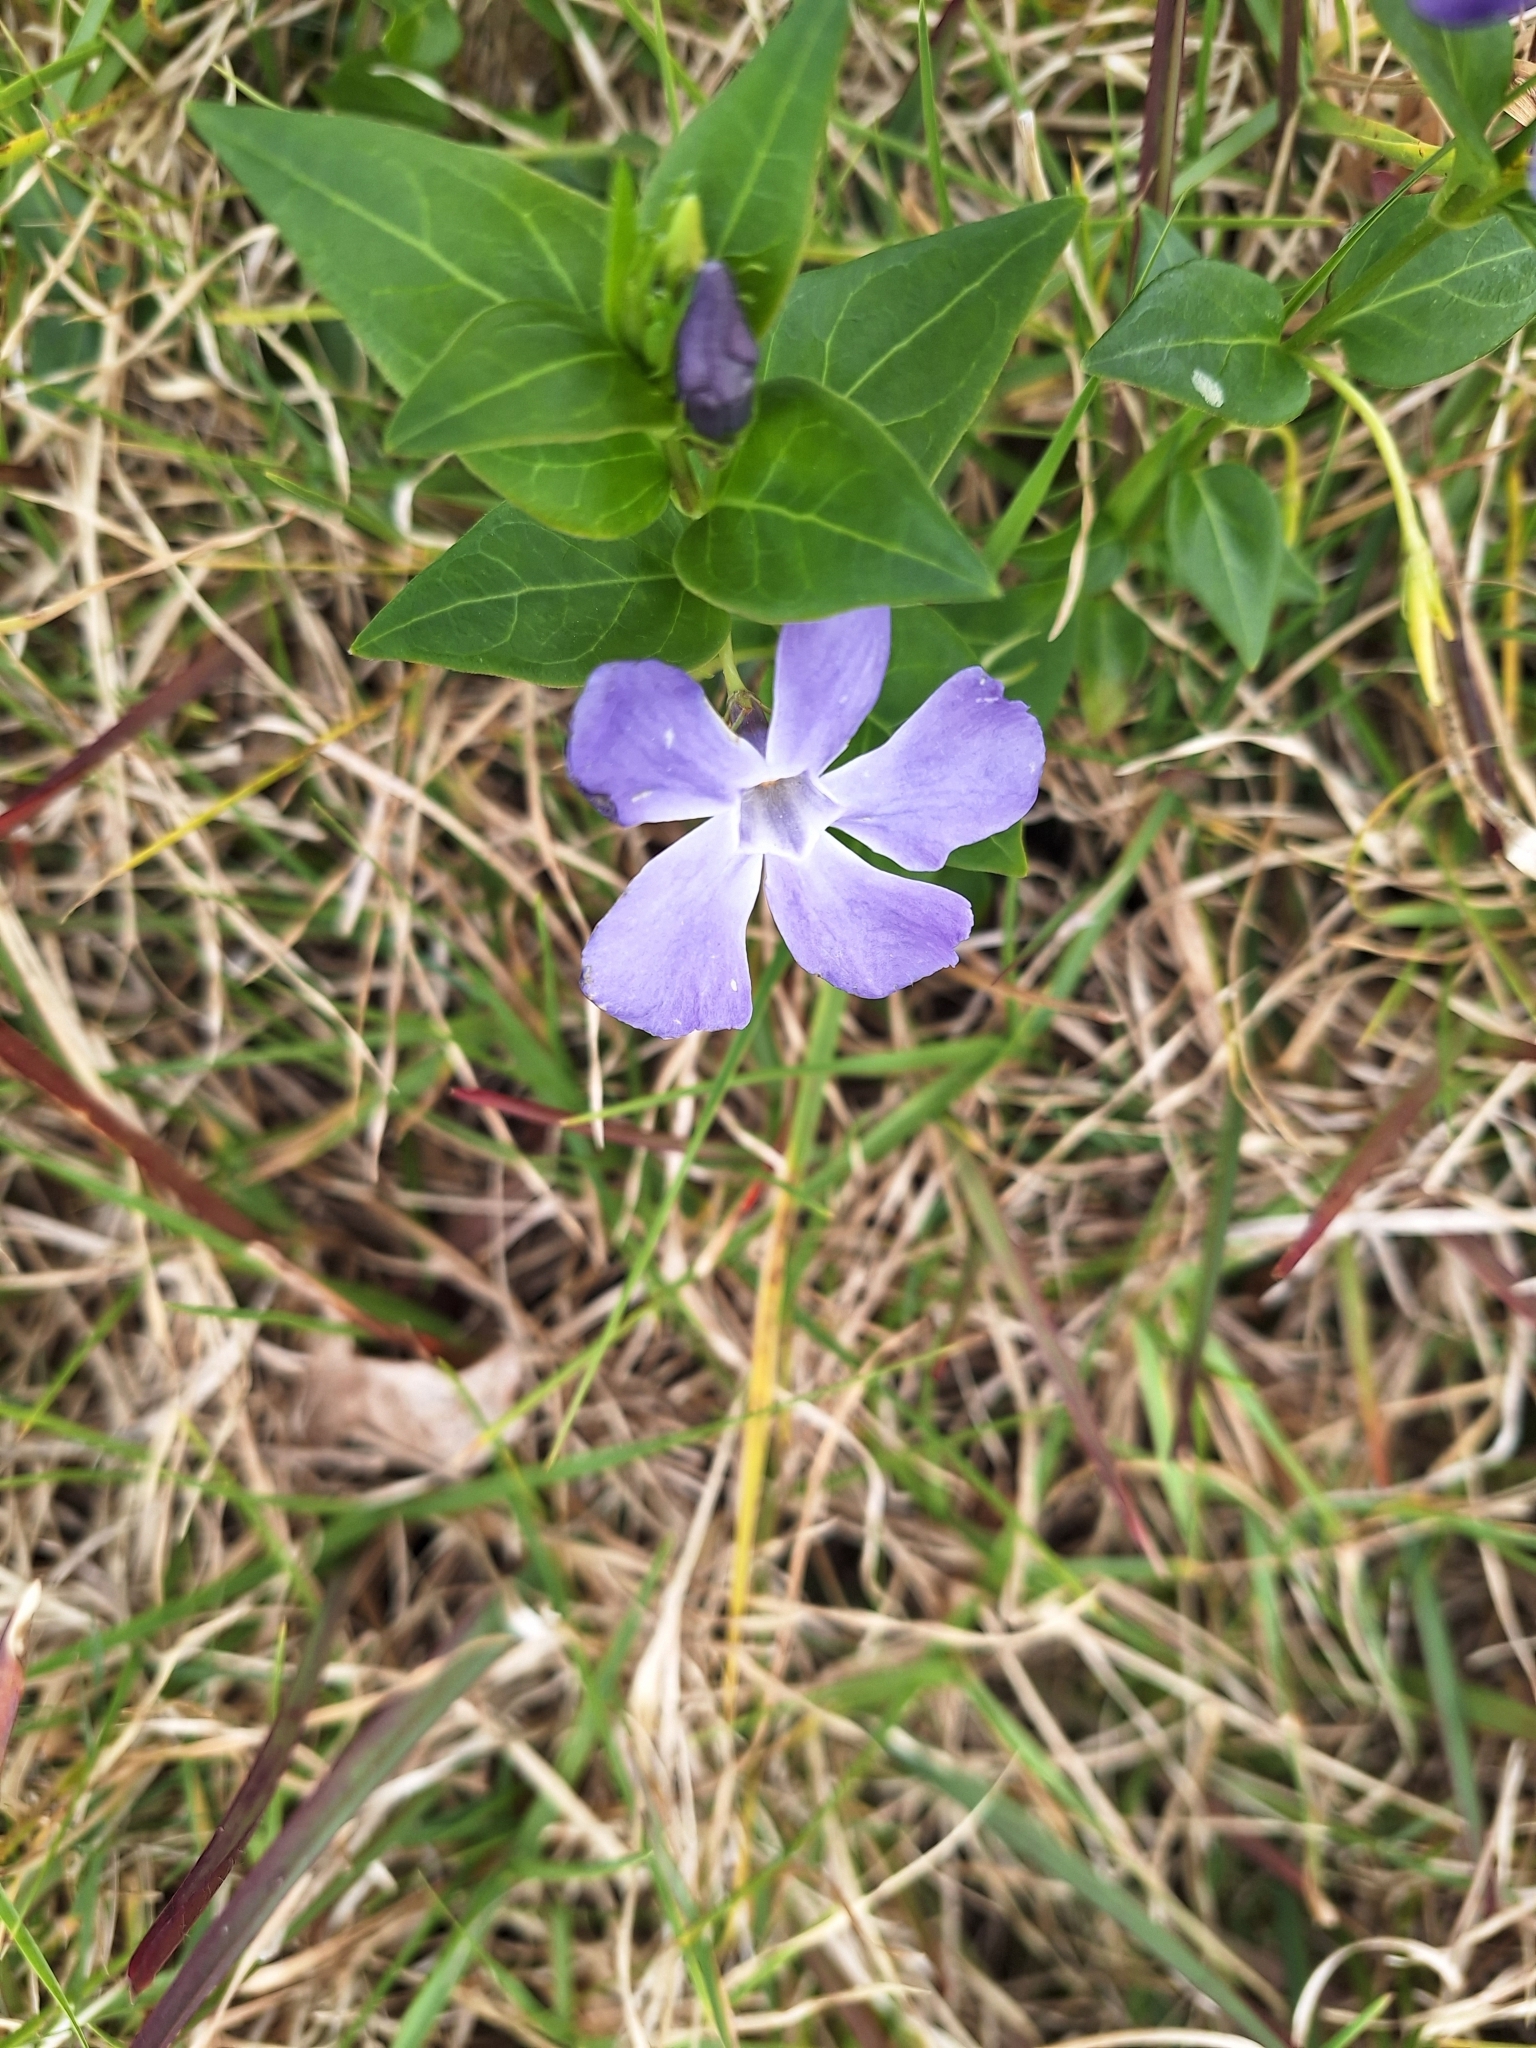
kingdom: Plantae
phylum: Tracheophyta
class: Magnoliopsida
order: Gentianales
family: Apocynaceae
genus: Vinca
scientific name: Vinca major
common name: Greater periwinkle
